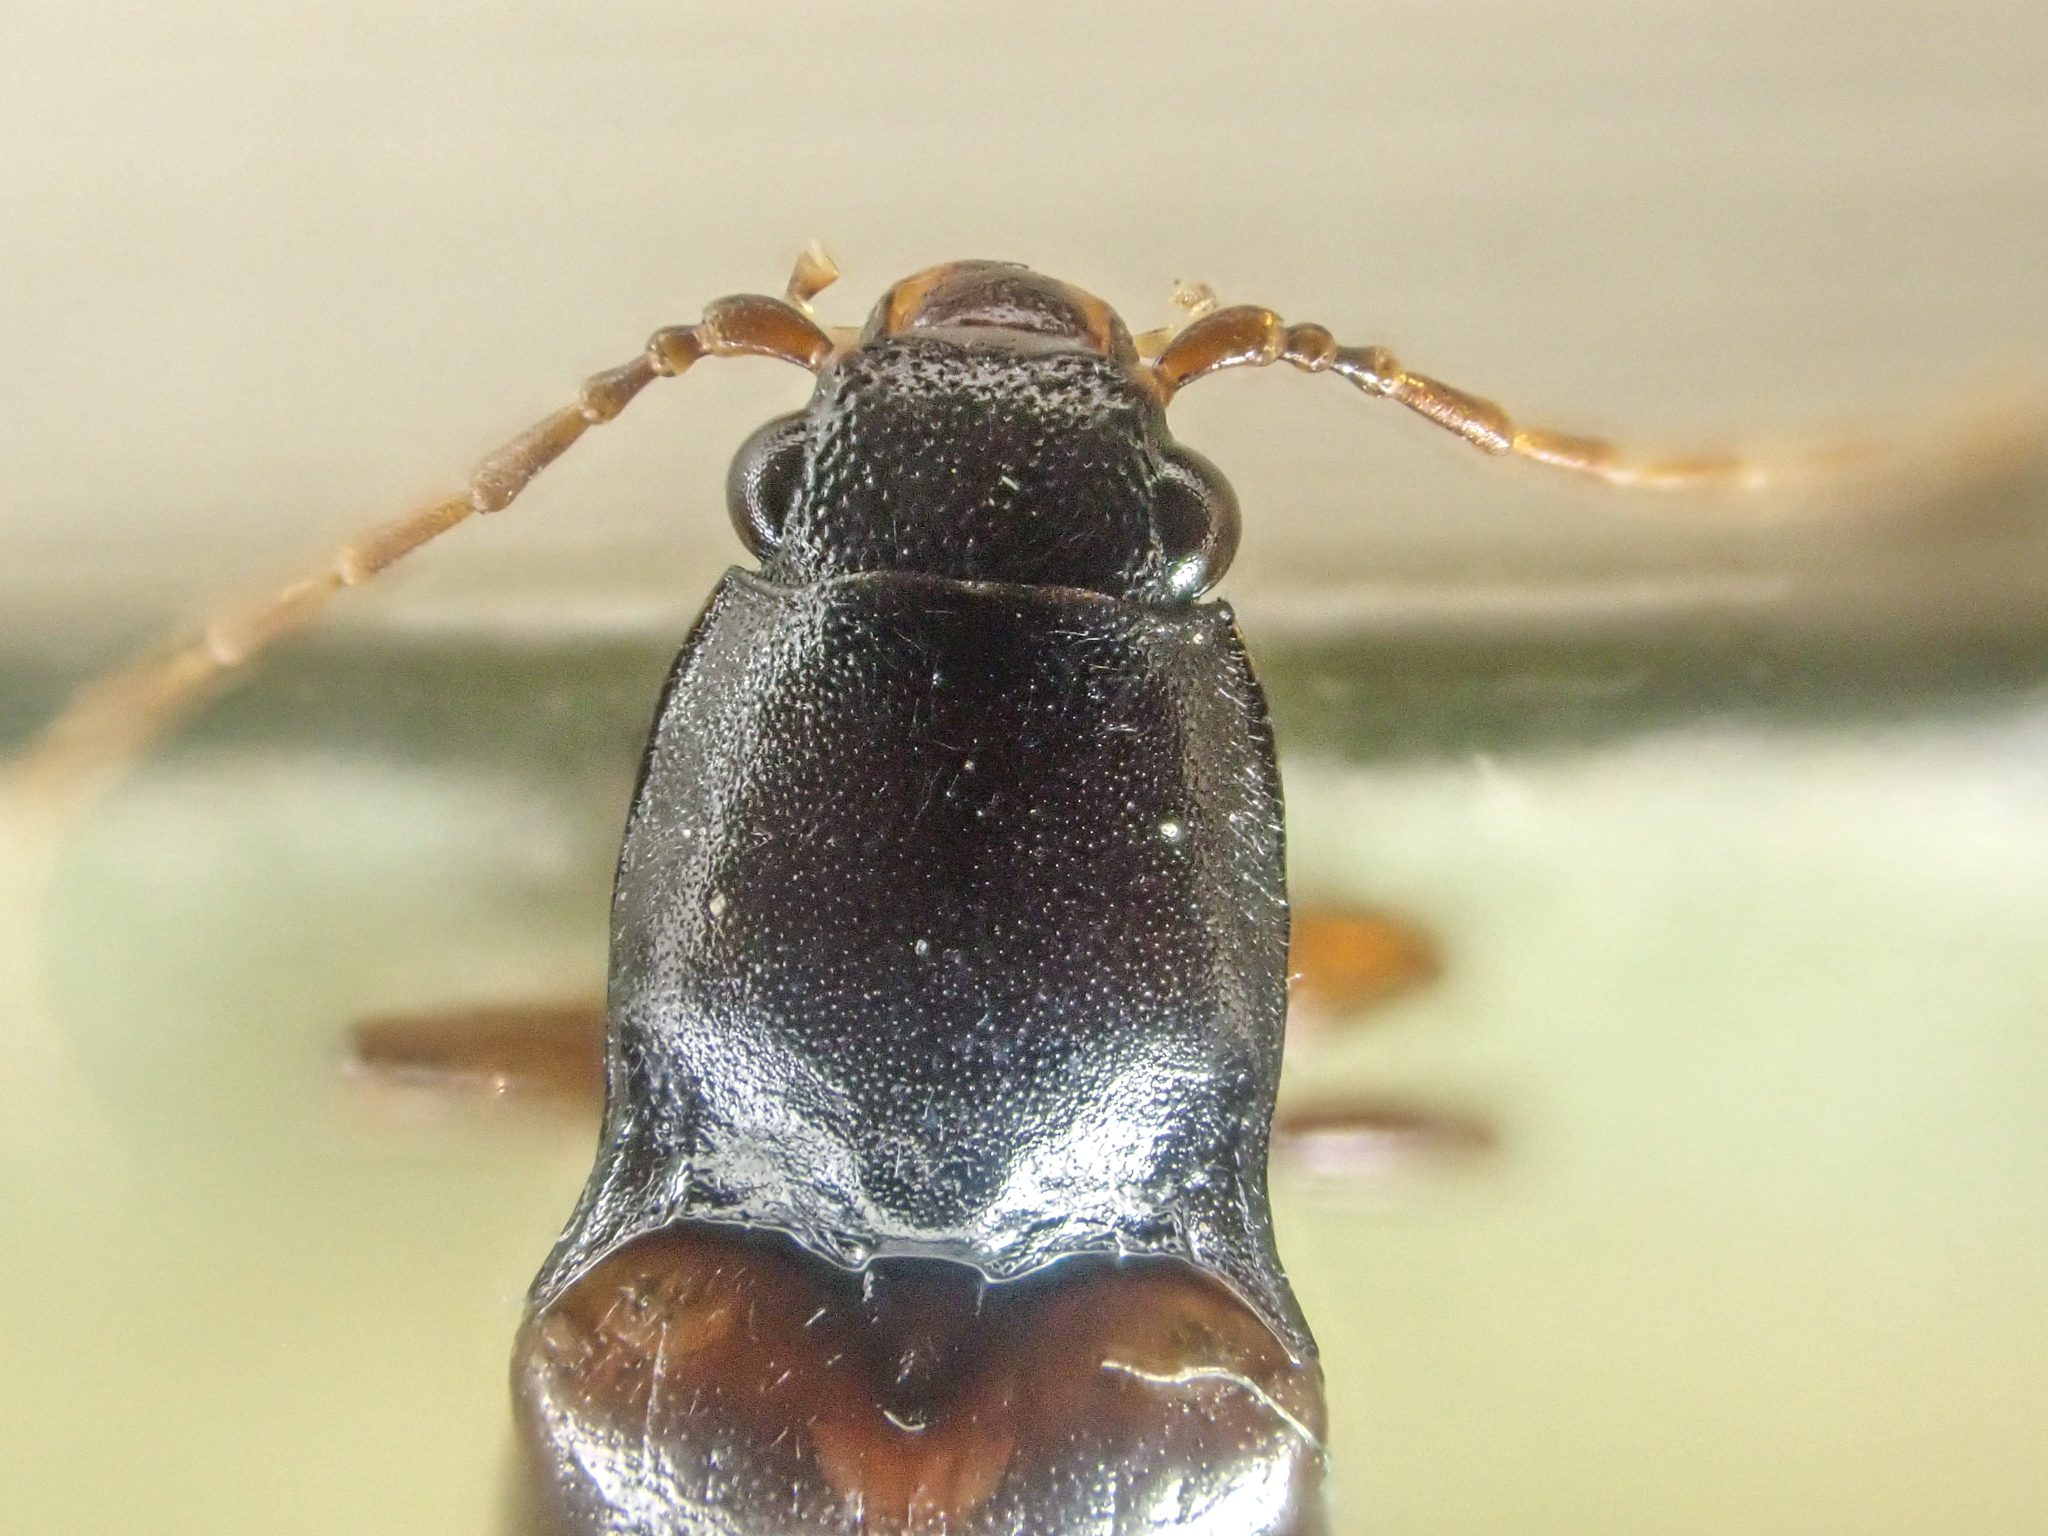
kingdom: Animalia
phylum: Arthropoda
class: Insecta
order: Coleoptera
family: Elateridae
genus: Metanomus
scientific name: Metanomus insidiosus
